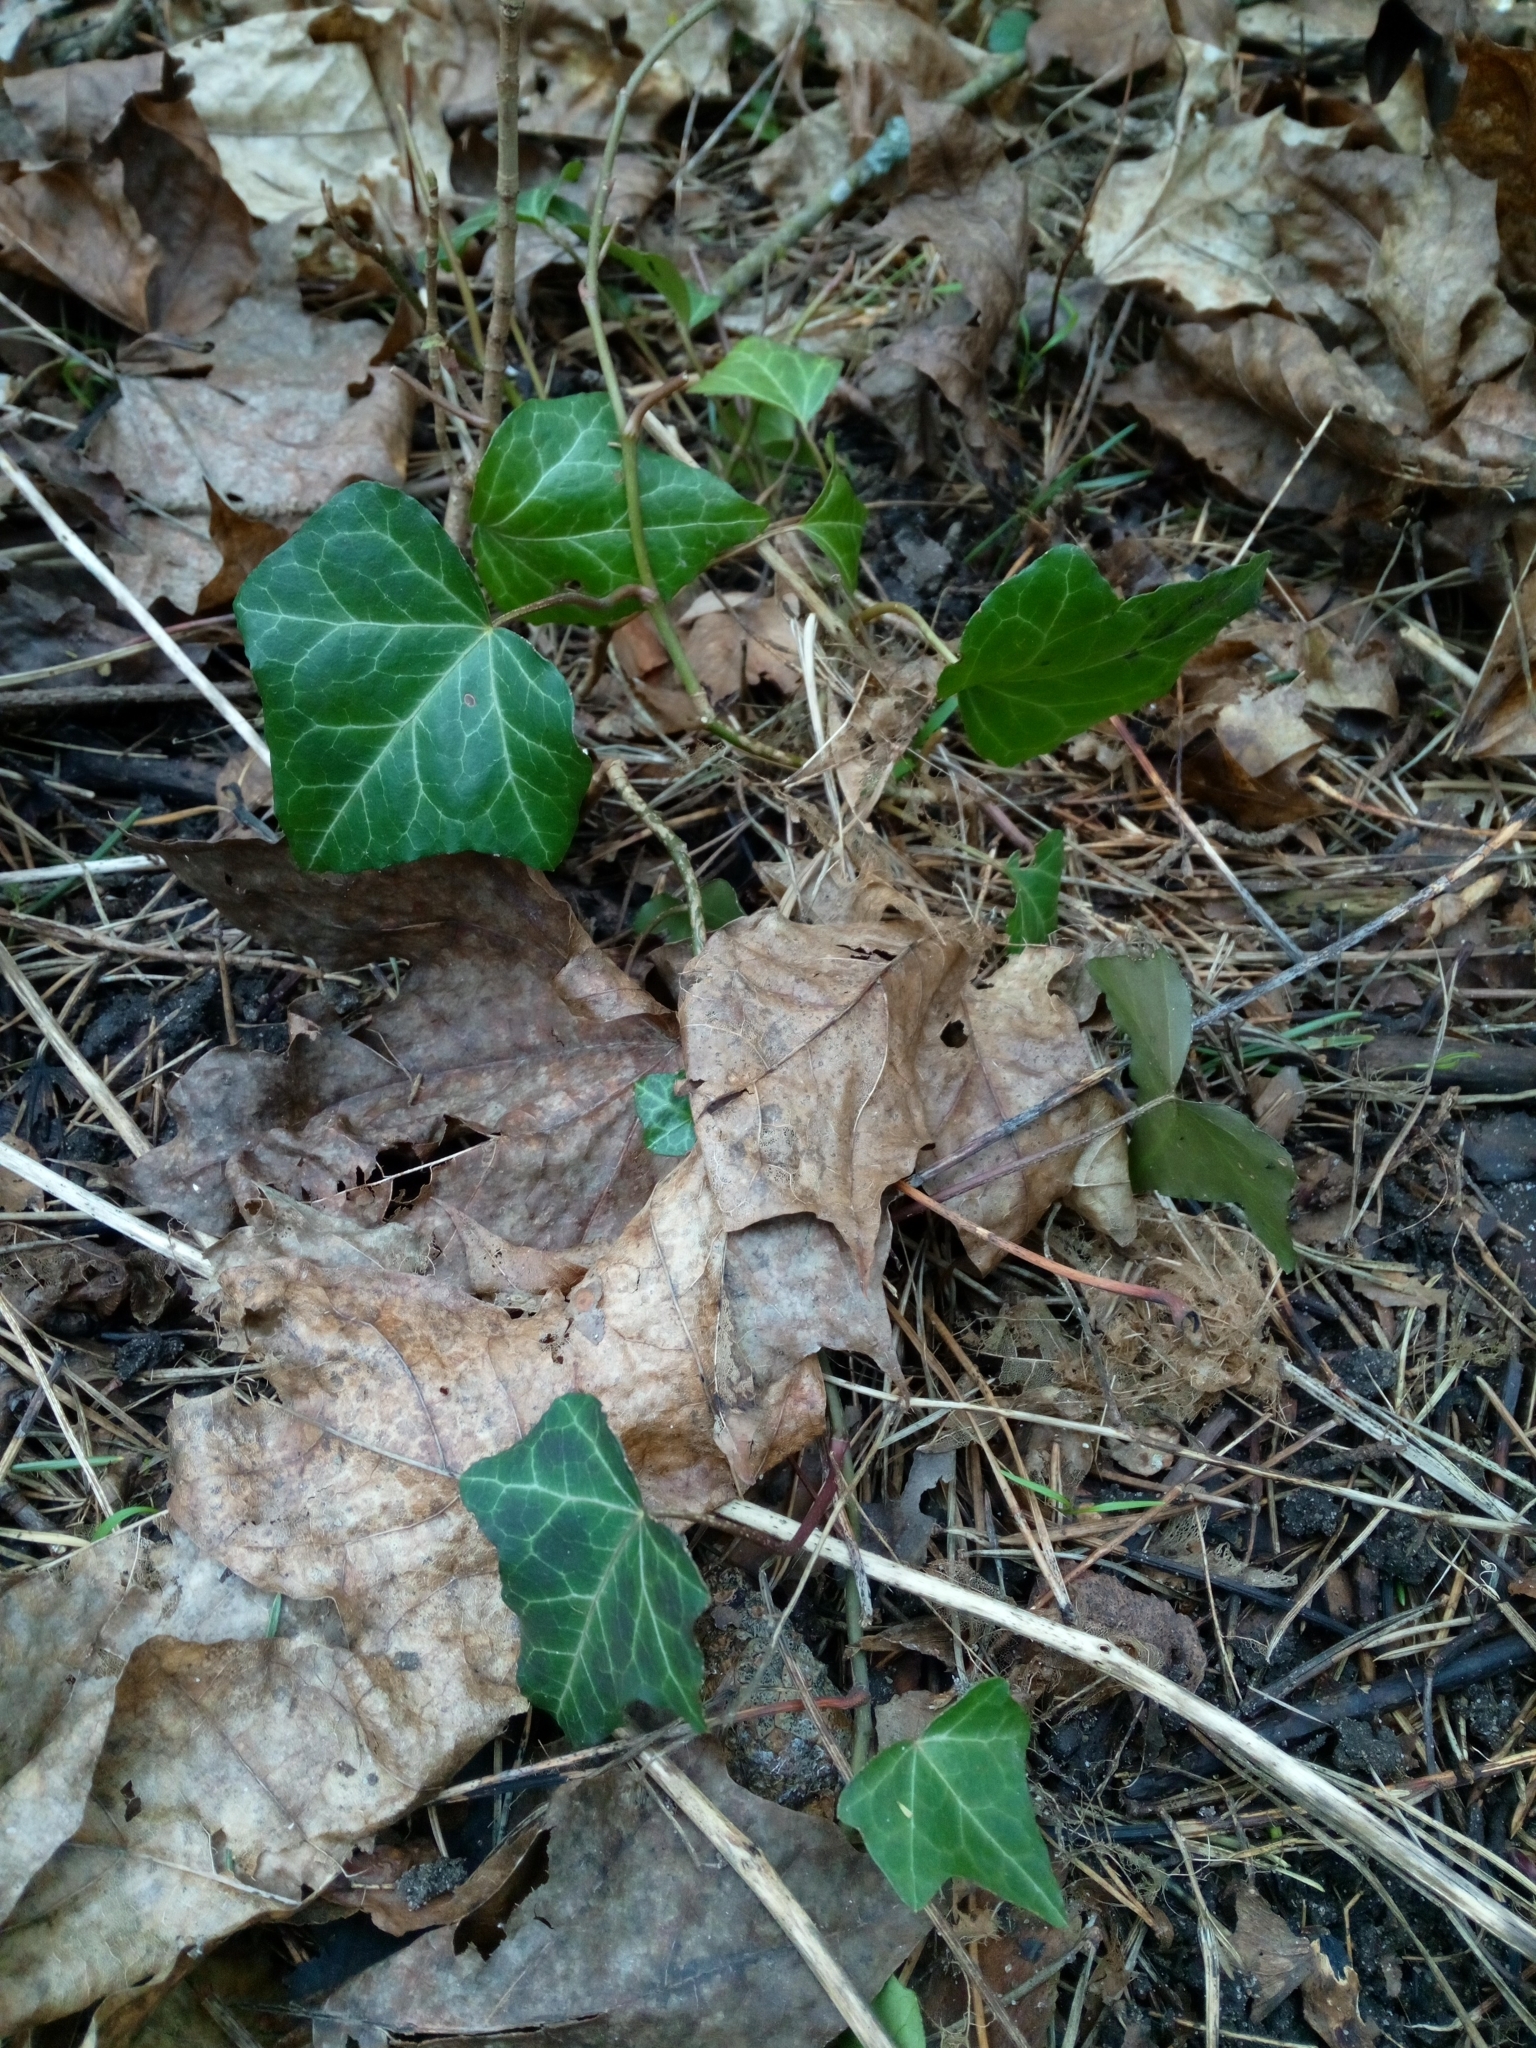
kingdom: Plantae
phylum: Tracheophyta
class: Magnoliopsida
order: Apiales
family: Araliaceae
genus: Hedera
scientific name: Hedera helix
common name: Ivy
